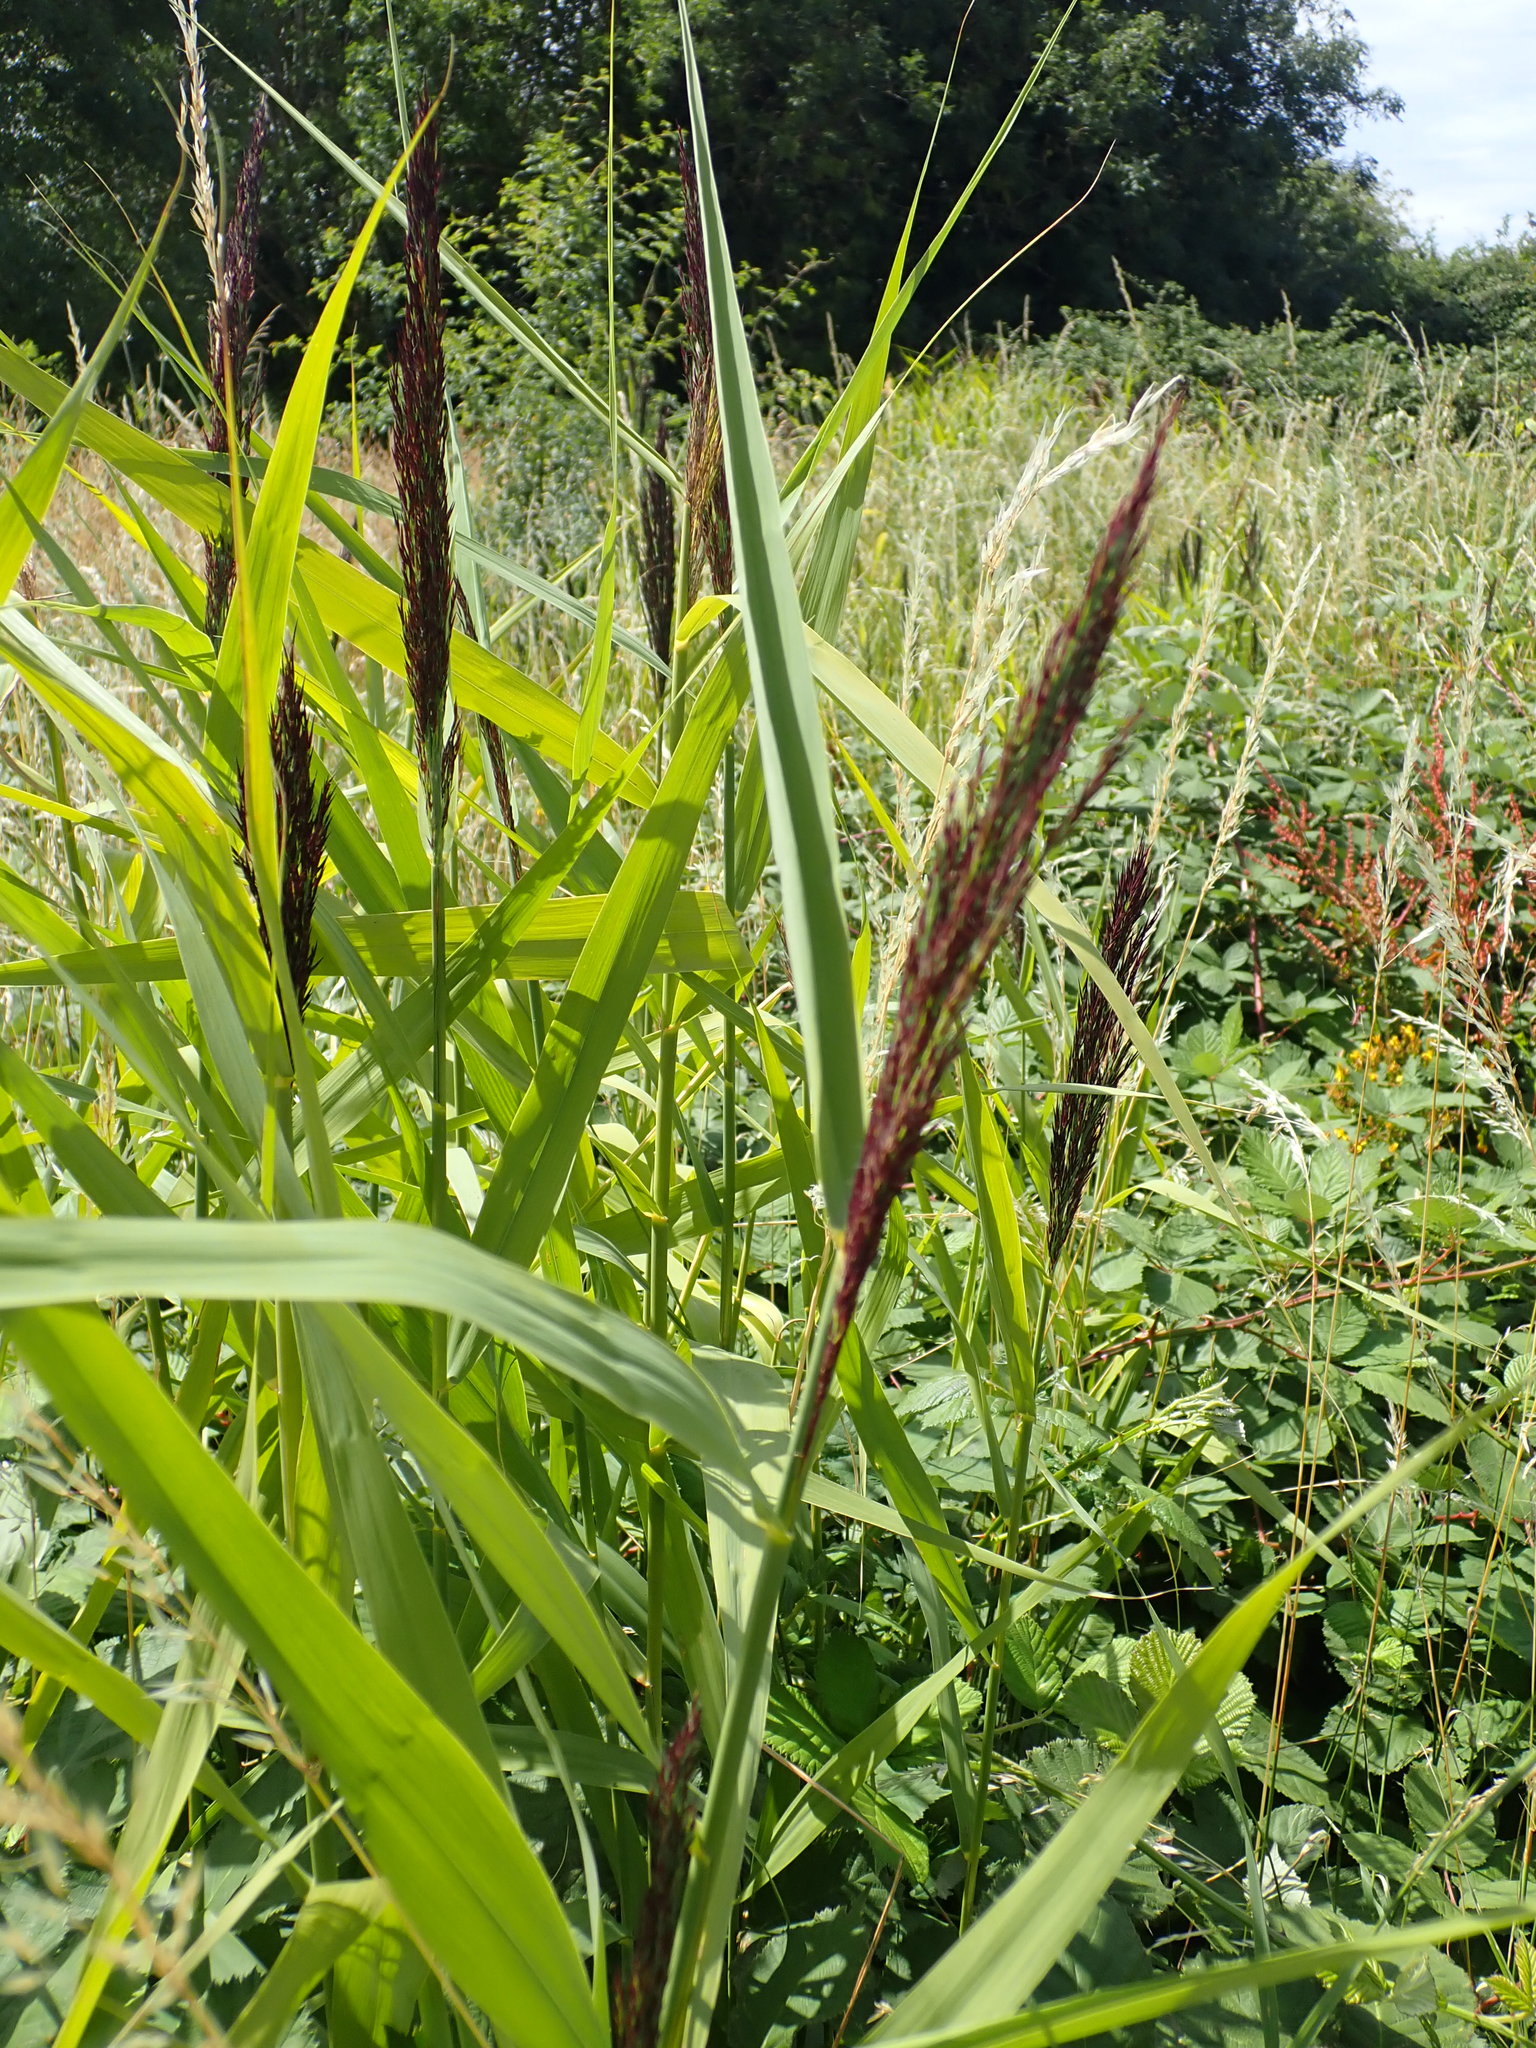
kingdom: Plantae
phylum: Tracheophyta
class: Liliopsida
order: Poales
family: Poaceae
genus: Phragmites
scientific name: Phragmites australis
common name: Common reed
